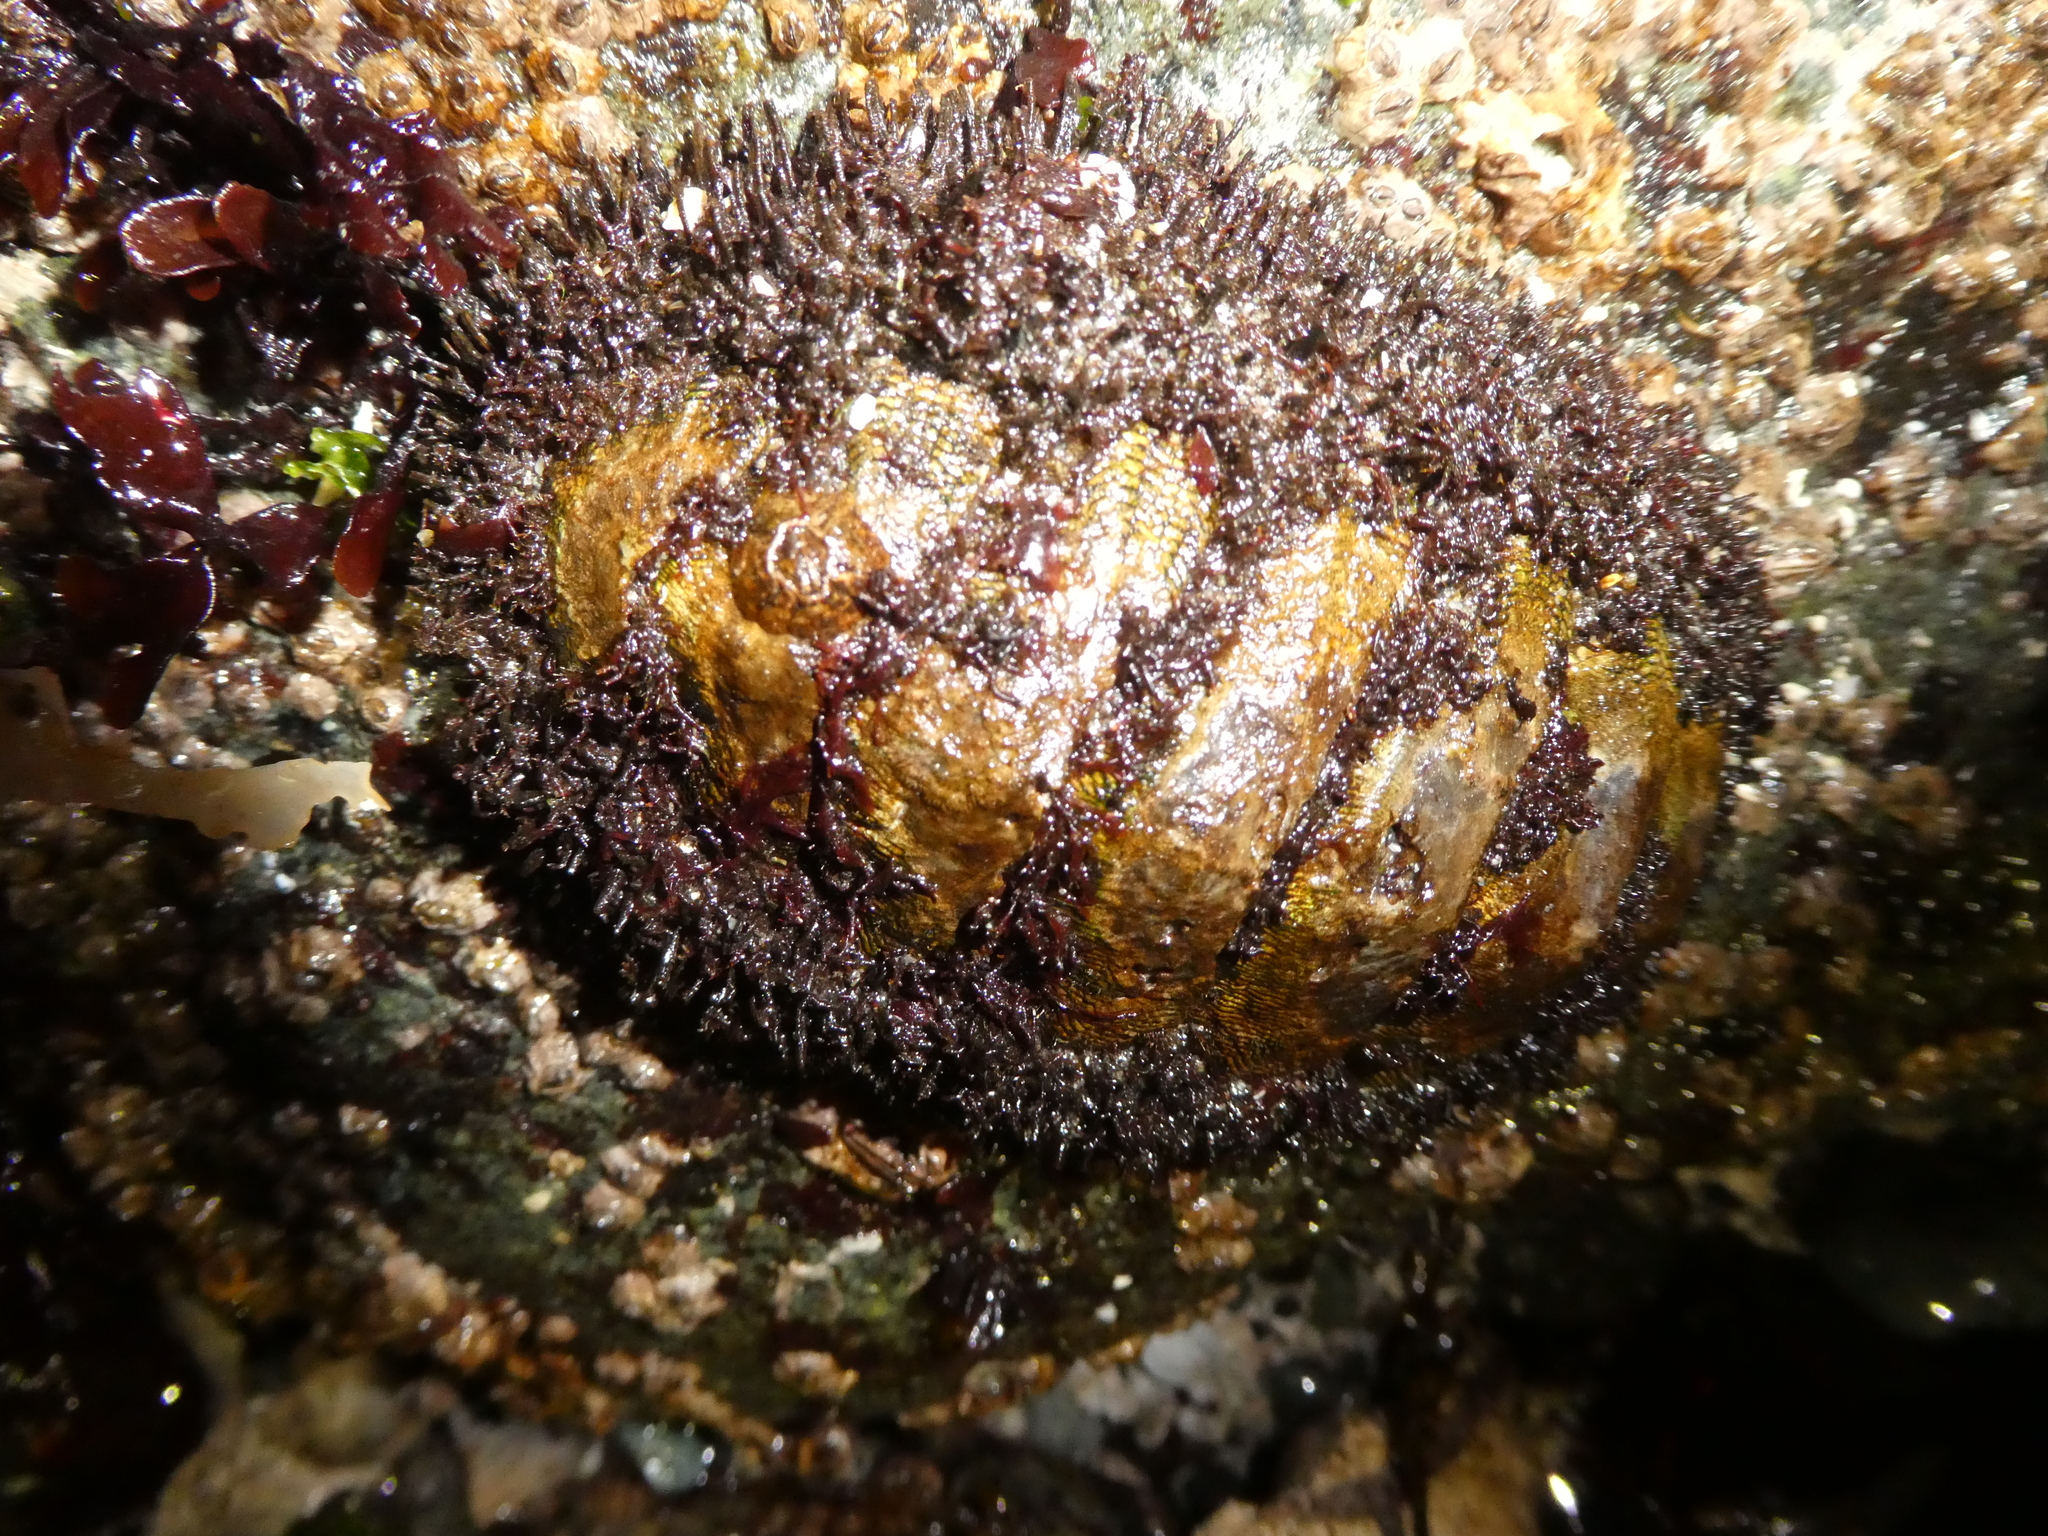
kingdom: Animalia
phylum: Mollusca
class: Polyplacophora
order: Chitonida
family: Mopaliidae
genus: Mopalia
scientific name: Mopalia muscosa
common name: Mossy chiton
